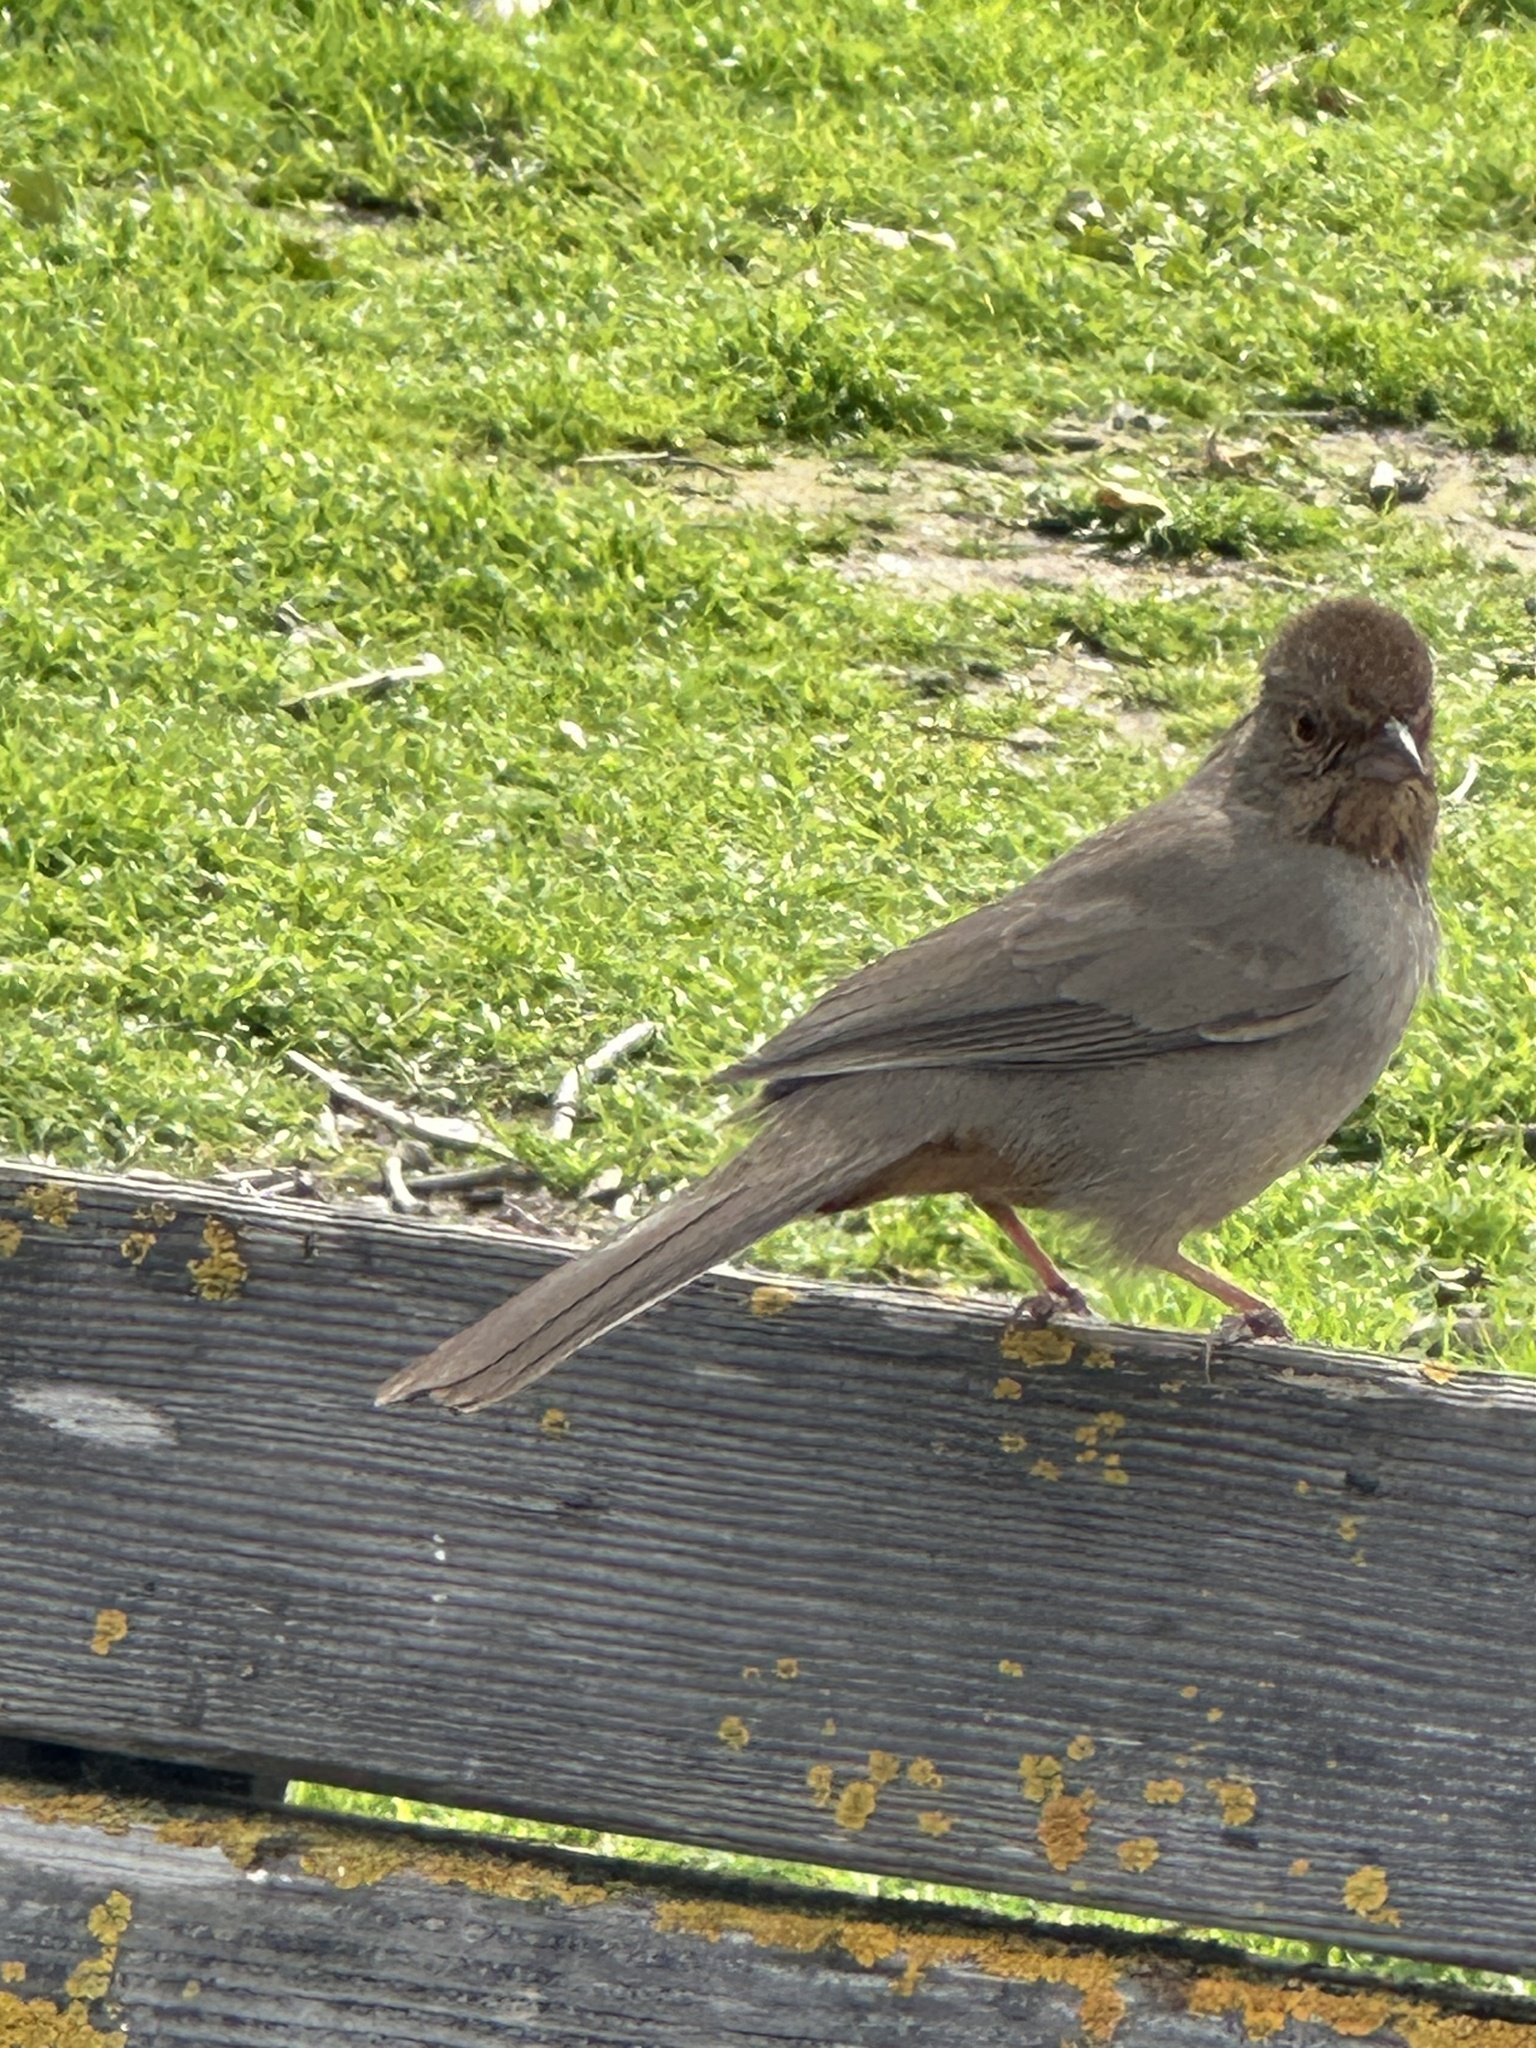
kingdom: Animalia
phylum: Chordata
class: Aves
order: Passeriformes
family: Passerellidae
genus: Melozone
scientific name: Melozone crissalis
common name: California towhee
